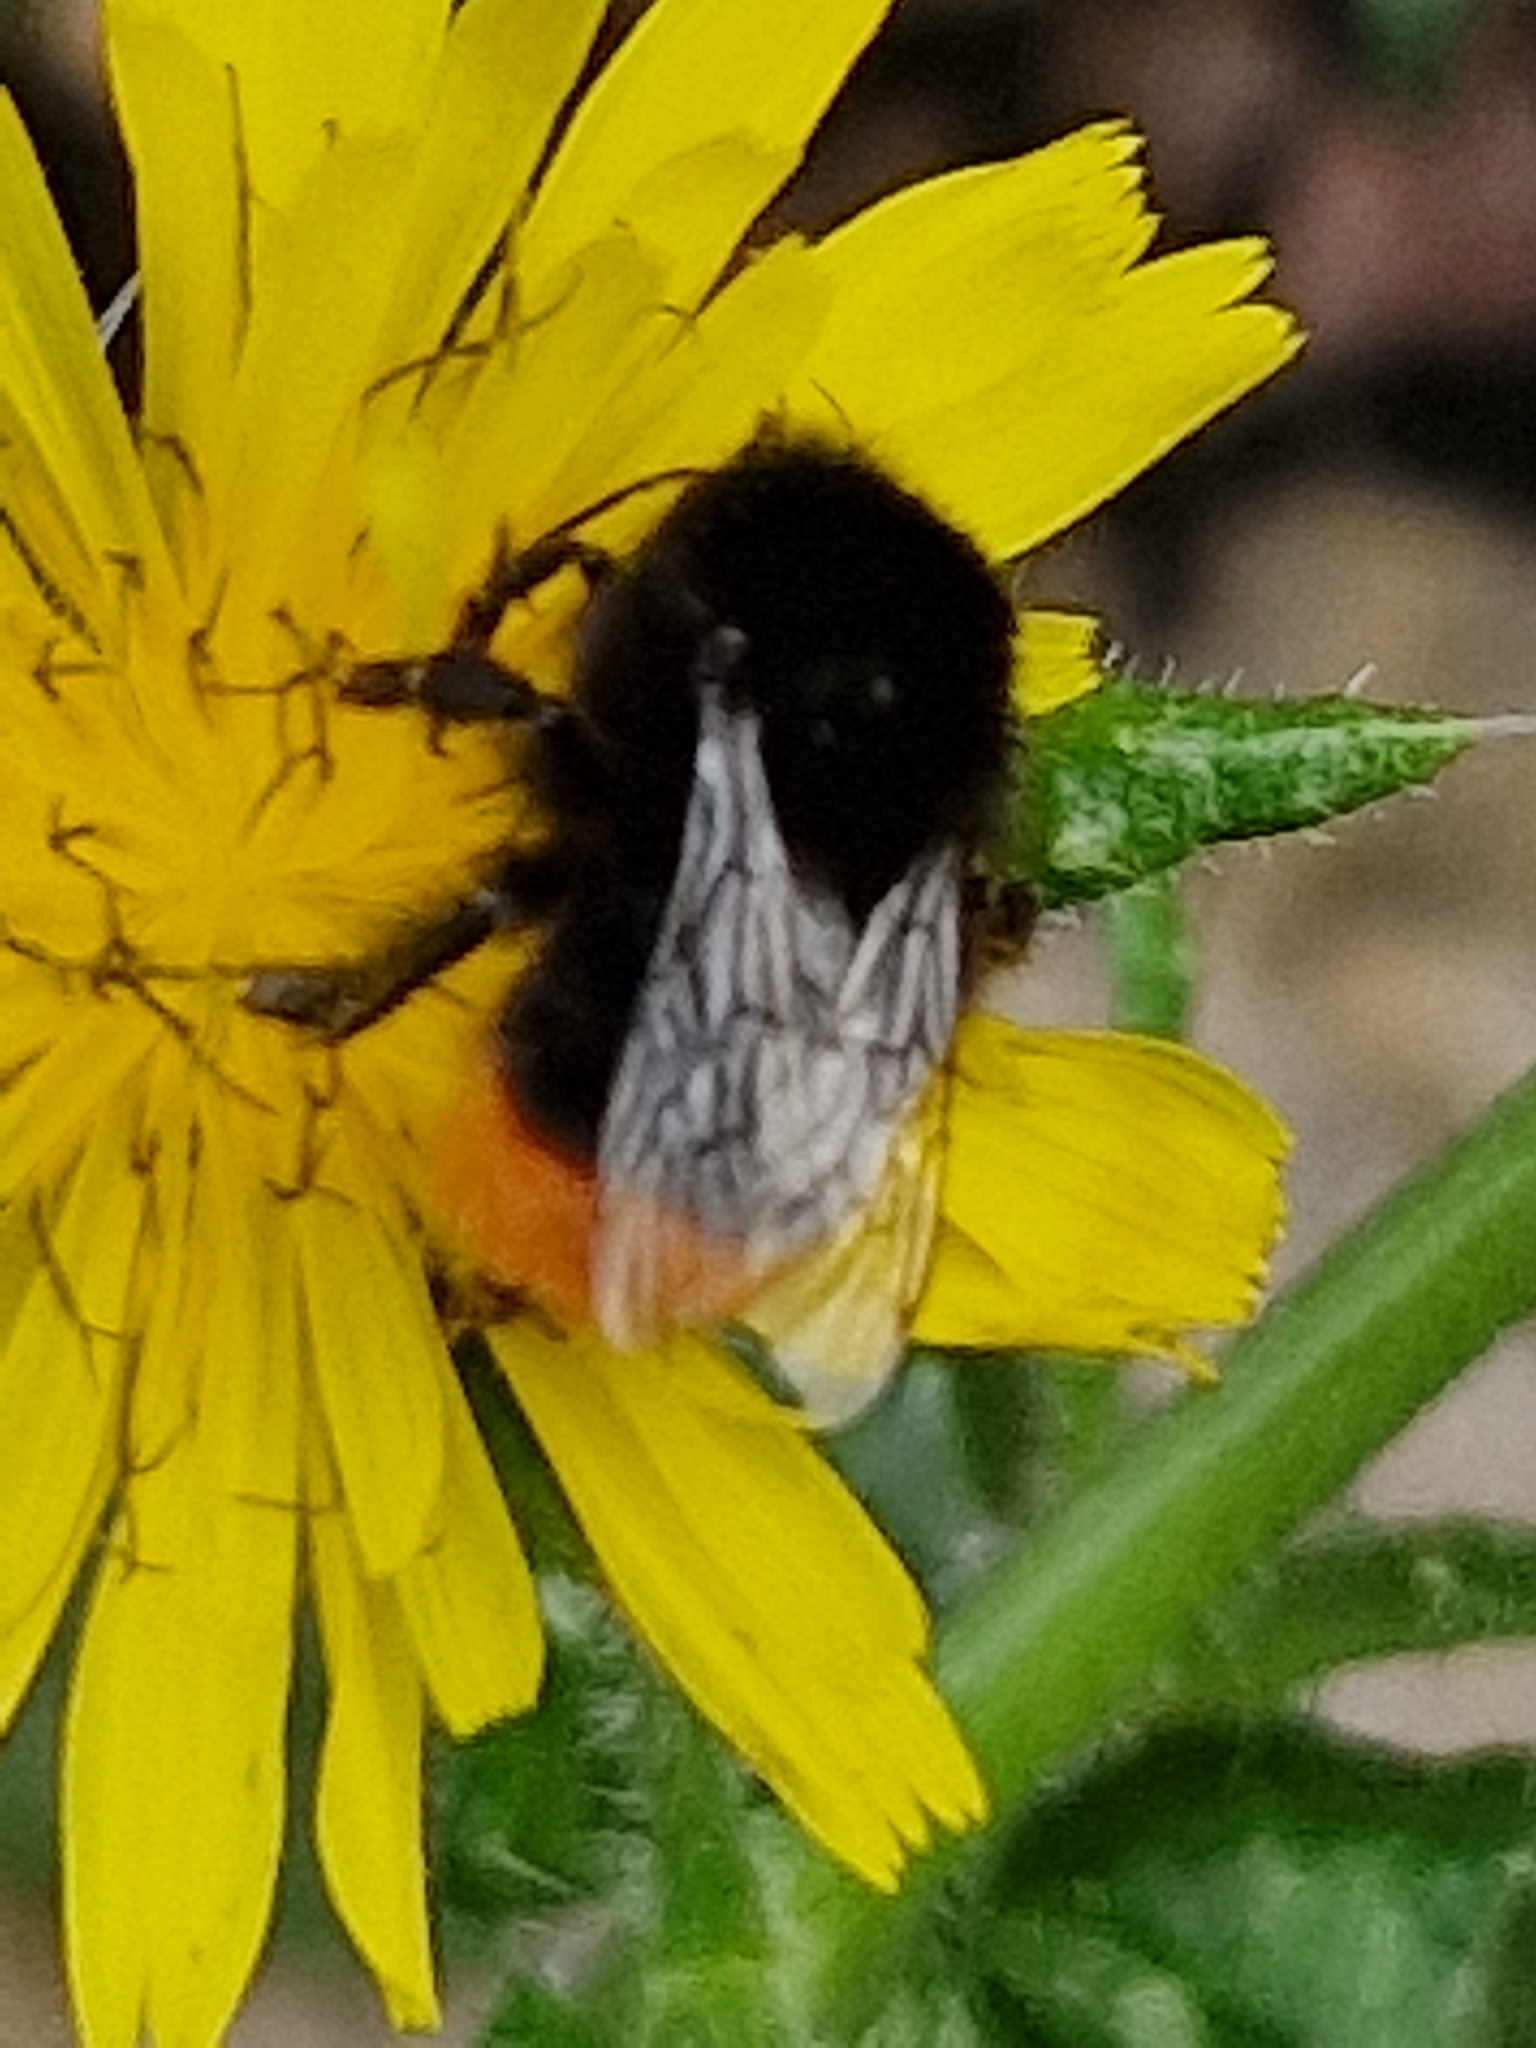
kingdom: Animalia
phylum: Arthropoda
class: Insecta
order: Hymenoptera
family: Apidae
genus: Bombus
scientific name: Bombus lapidarius
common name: Large red-tailed humble-bee
